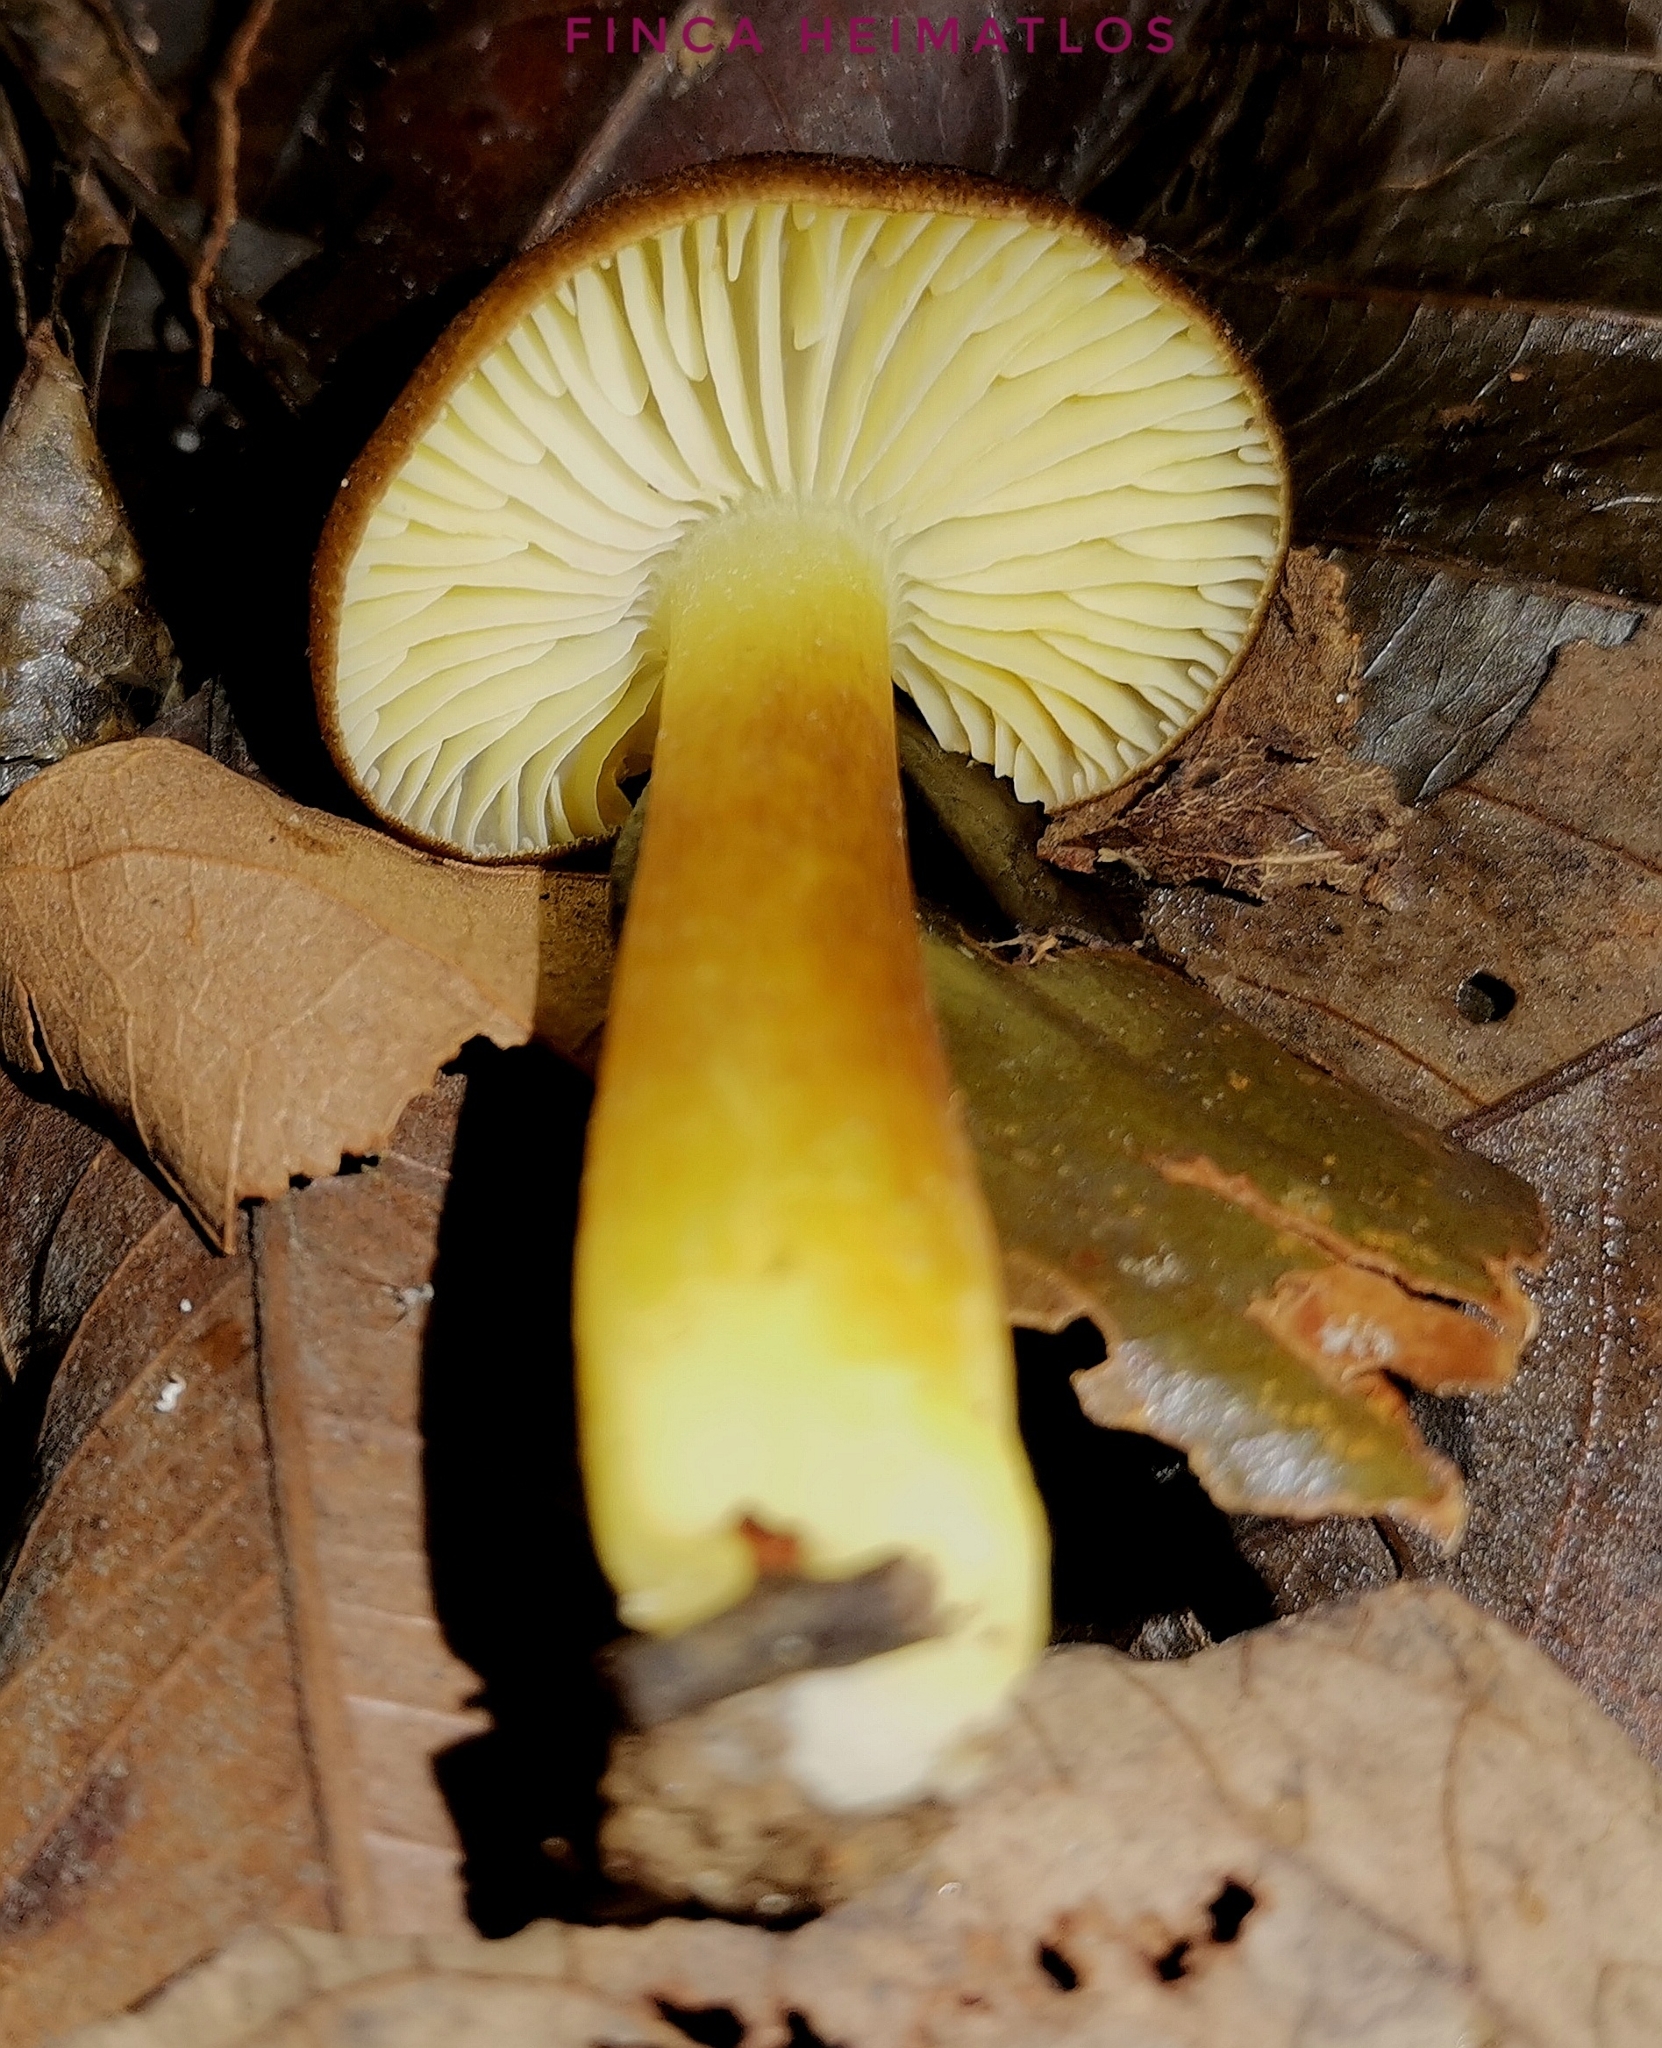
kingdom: Fungi
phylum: Basidiomycota
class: Agaricomycetes
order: Agaricales
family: Hygrophoraceae
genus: Hygrocybe
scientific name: Hygrocybe macrosiparia
